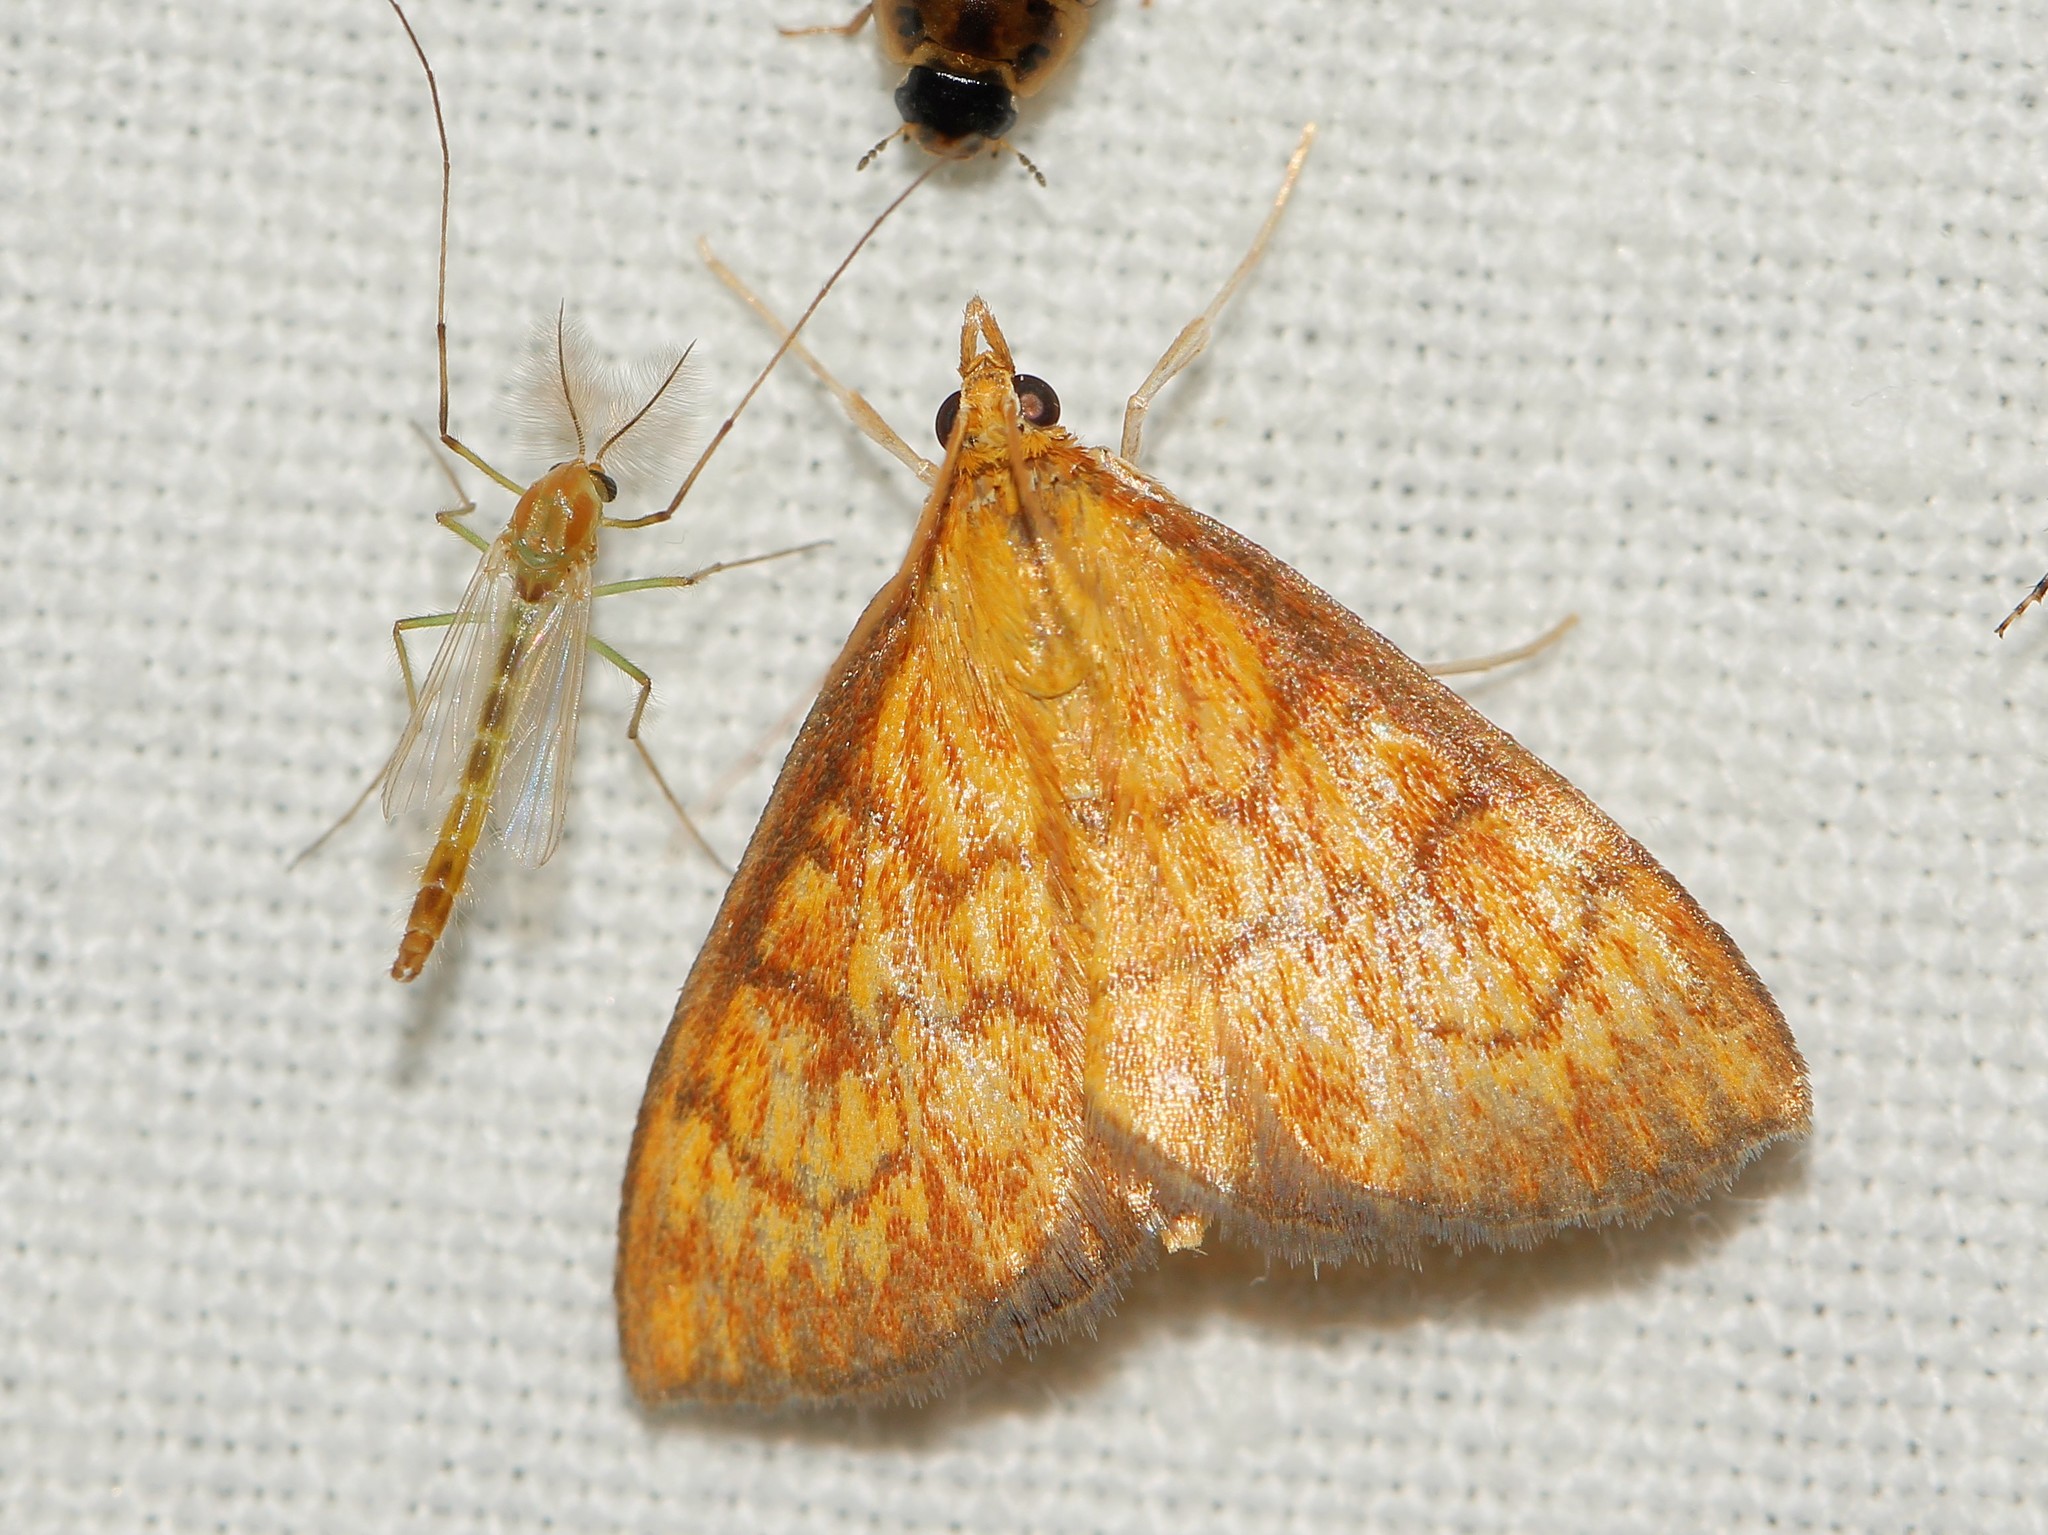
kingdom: Animalia
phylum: Arthropoda
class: Insecta
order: Lepidoptera
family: Crambidae
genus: Ecpyrrhorrhoe
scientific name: Ecpyrrhorrhoe rubiginalis
